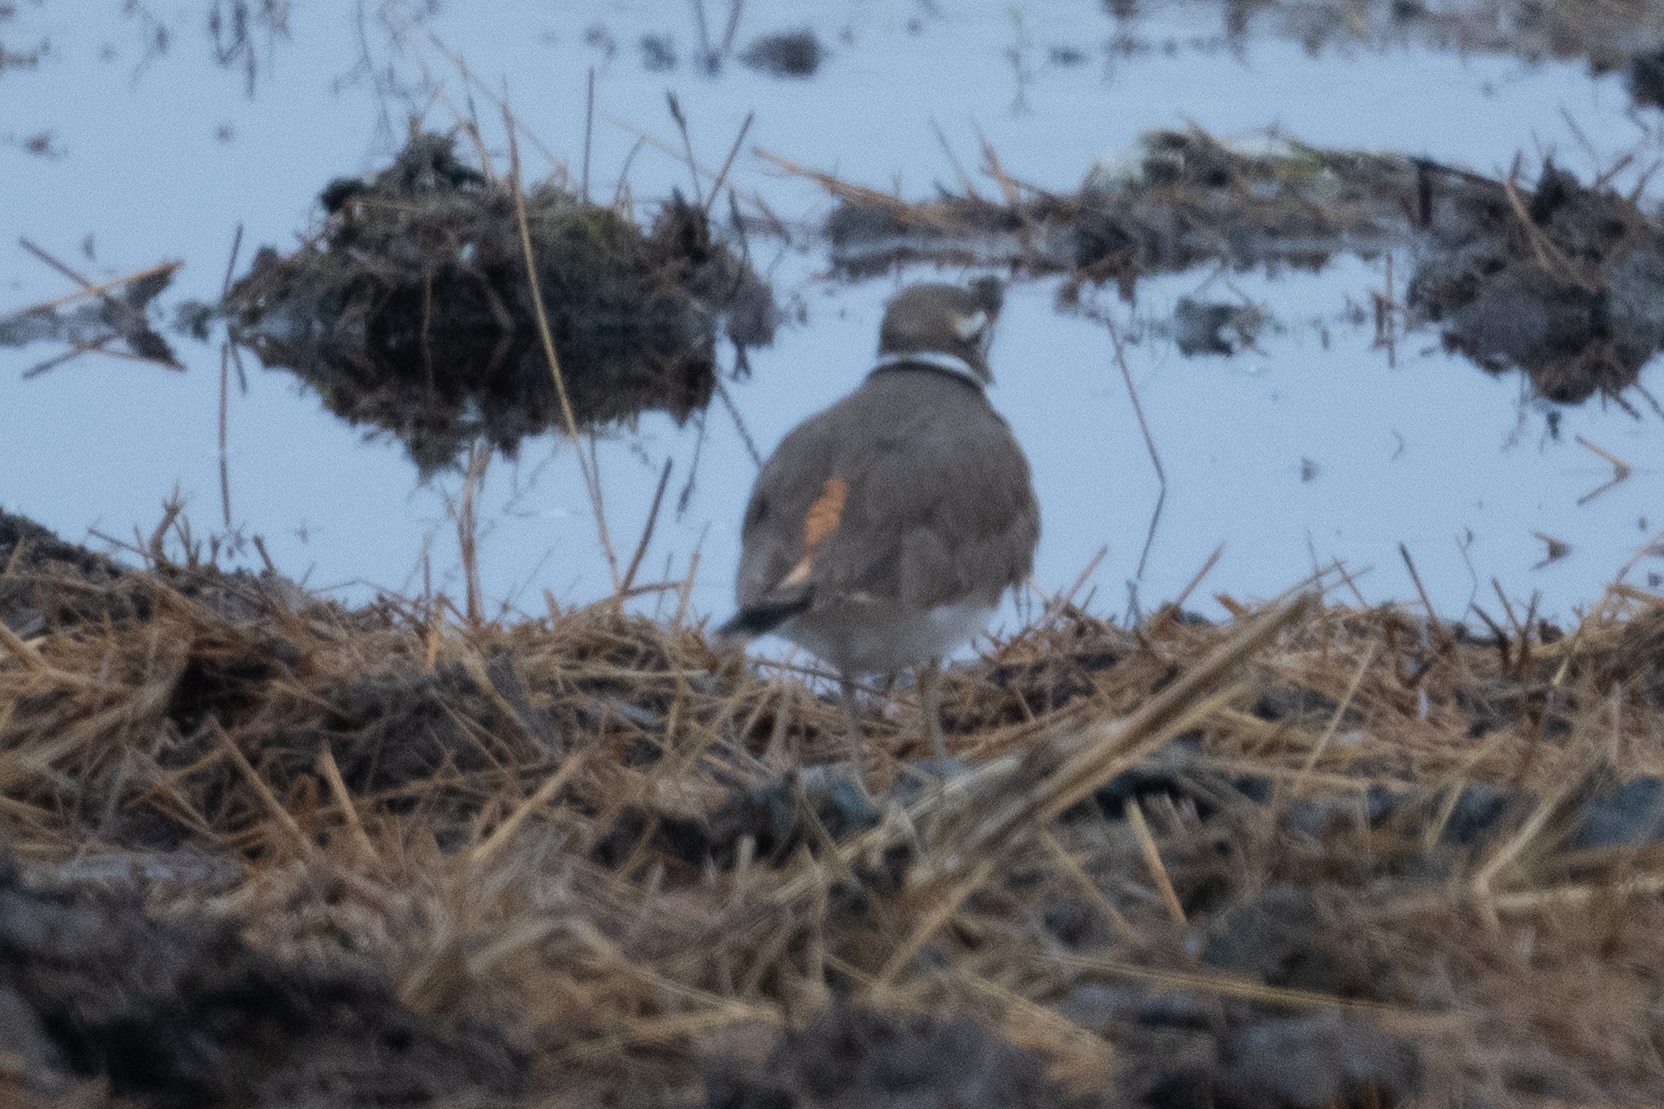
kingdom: Animalia
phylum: Chordata
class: Aves
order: Charadriiformes
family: Charadriidae
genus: Charadrius
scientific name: Charadrius vociferus
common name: Killdeer
